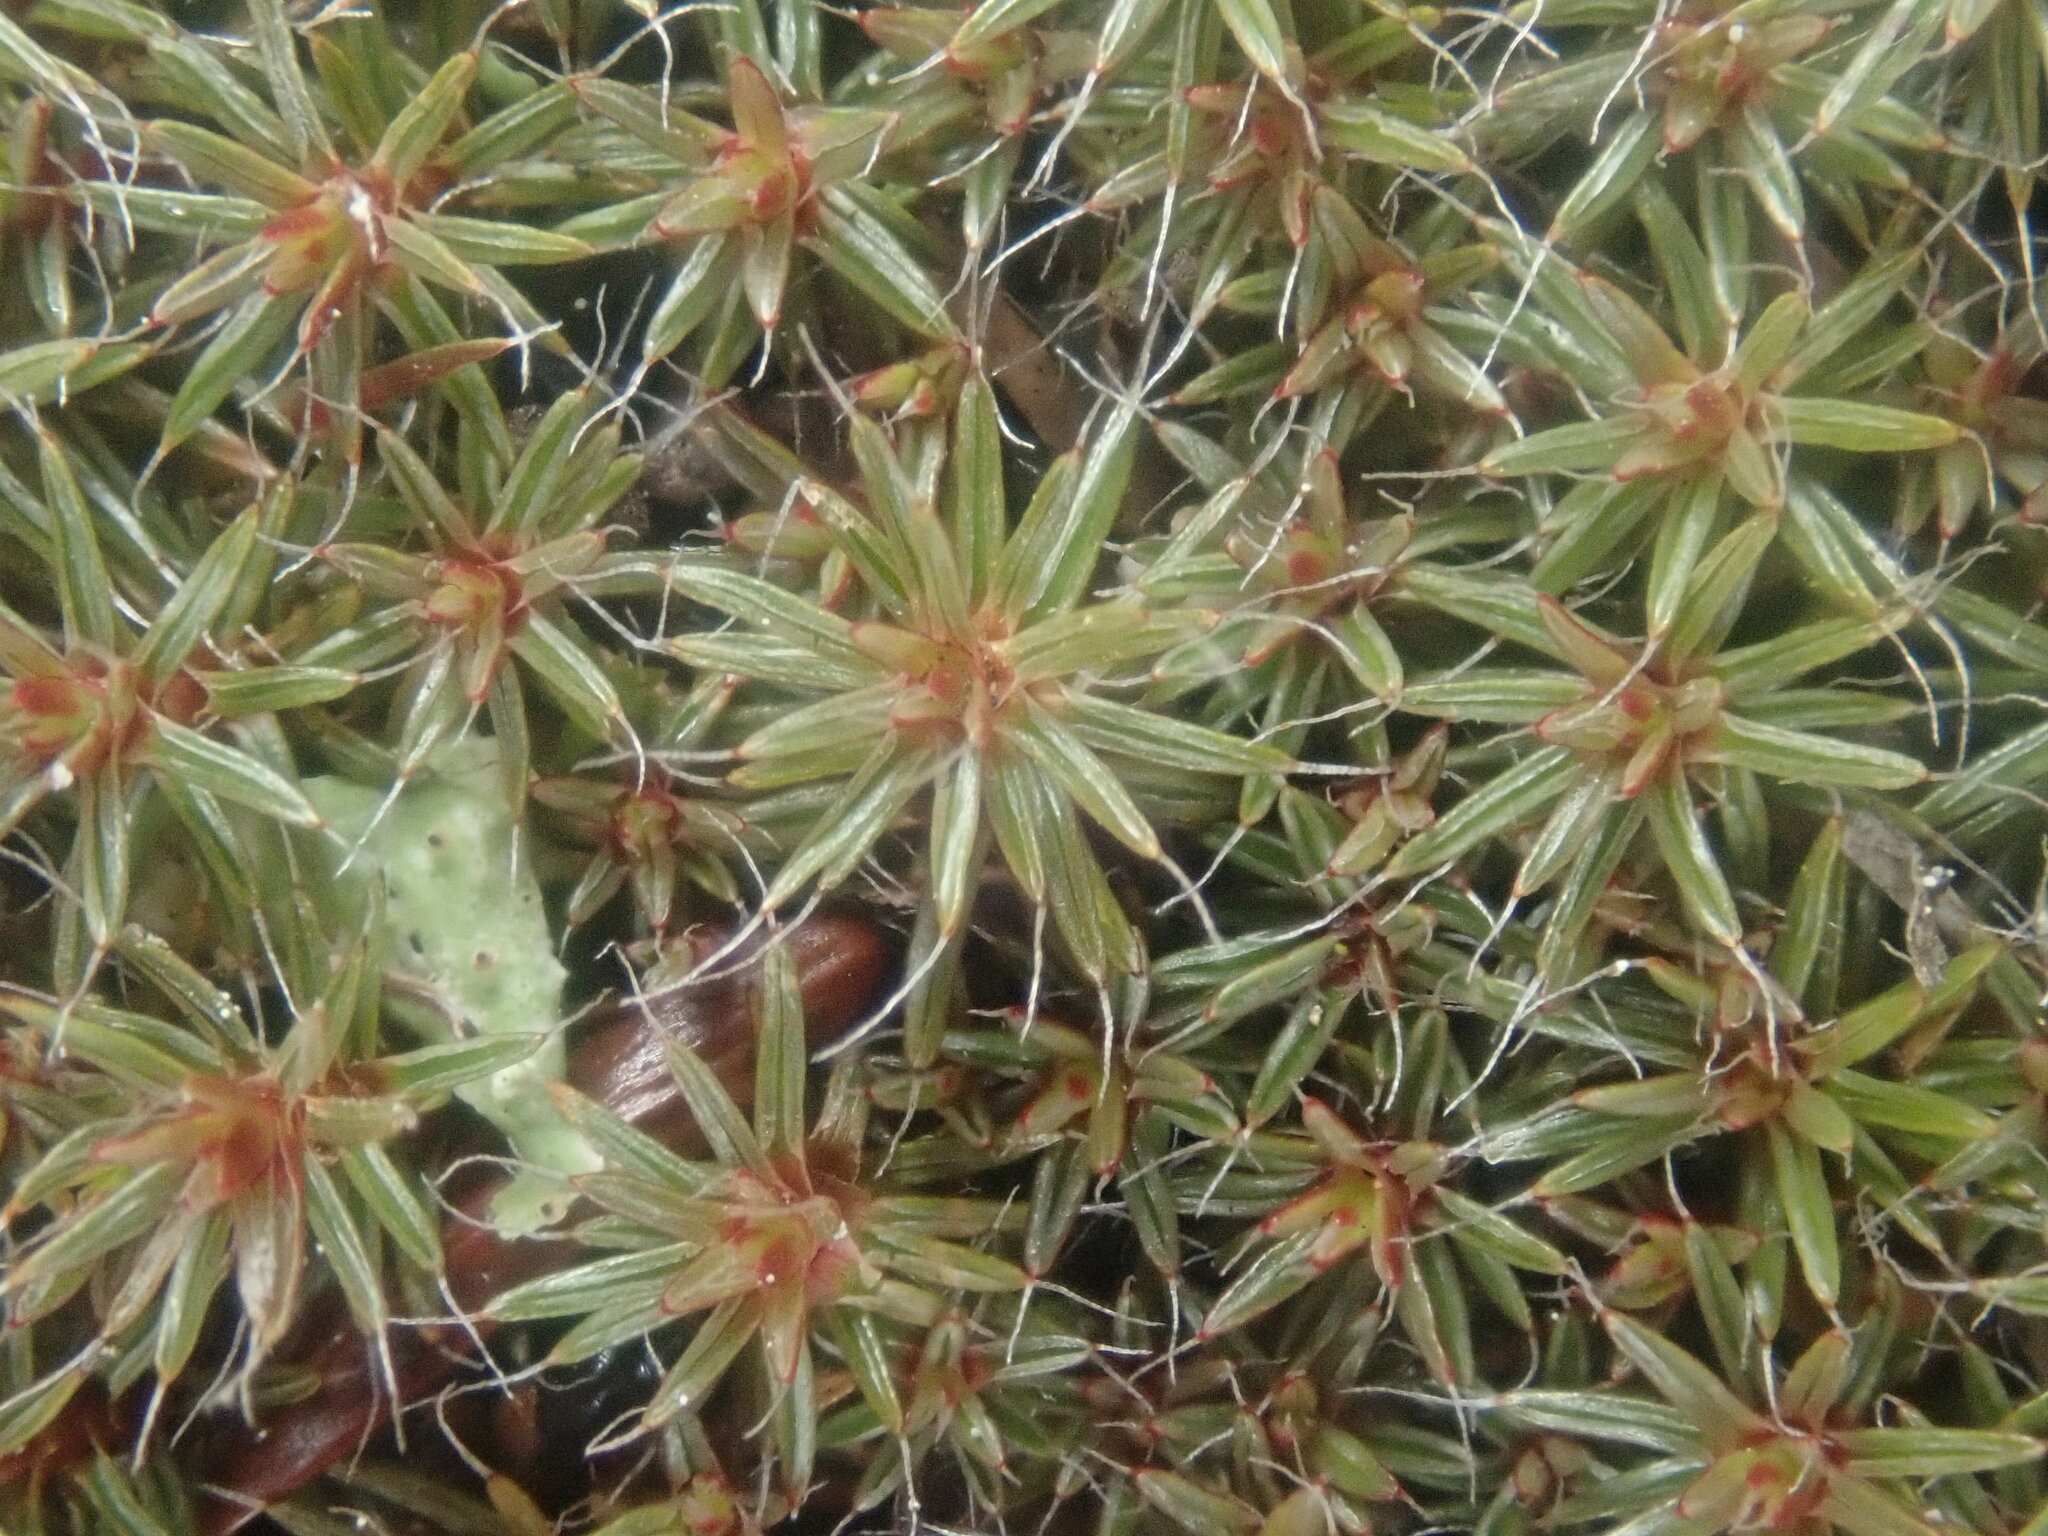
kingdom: Plantae
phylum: Bryophyta
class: Polytrichopsida
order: Polytrichales
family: Polytrichaceae
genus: Polytrichum
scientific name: Polytrichum piliferum
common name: Bristly haircap
